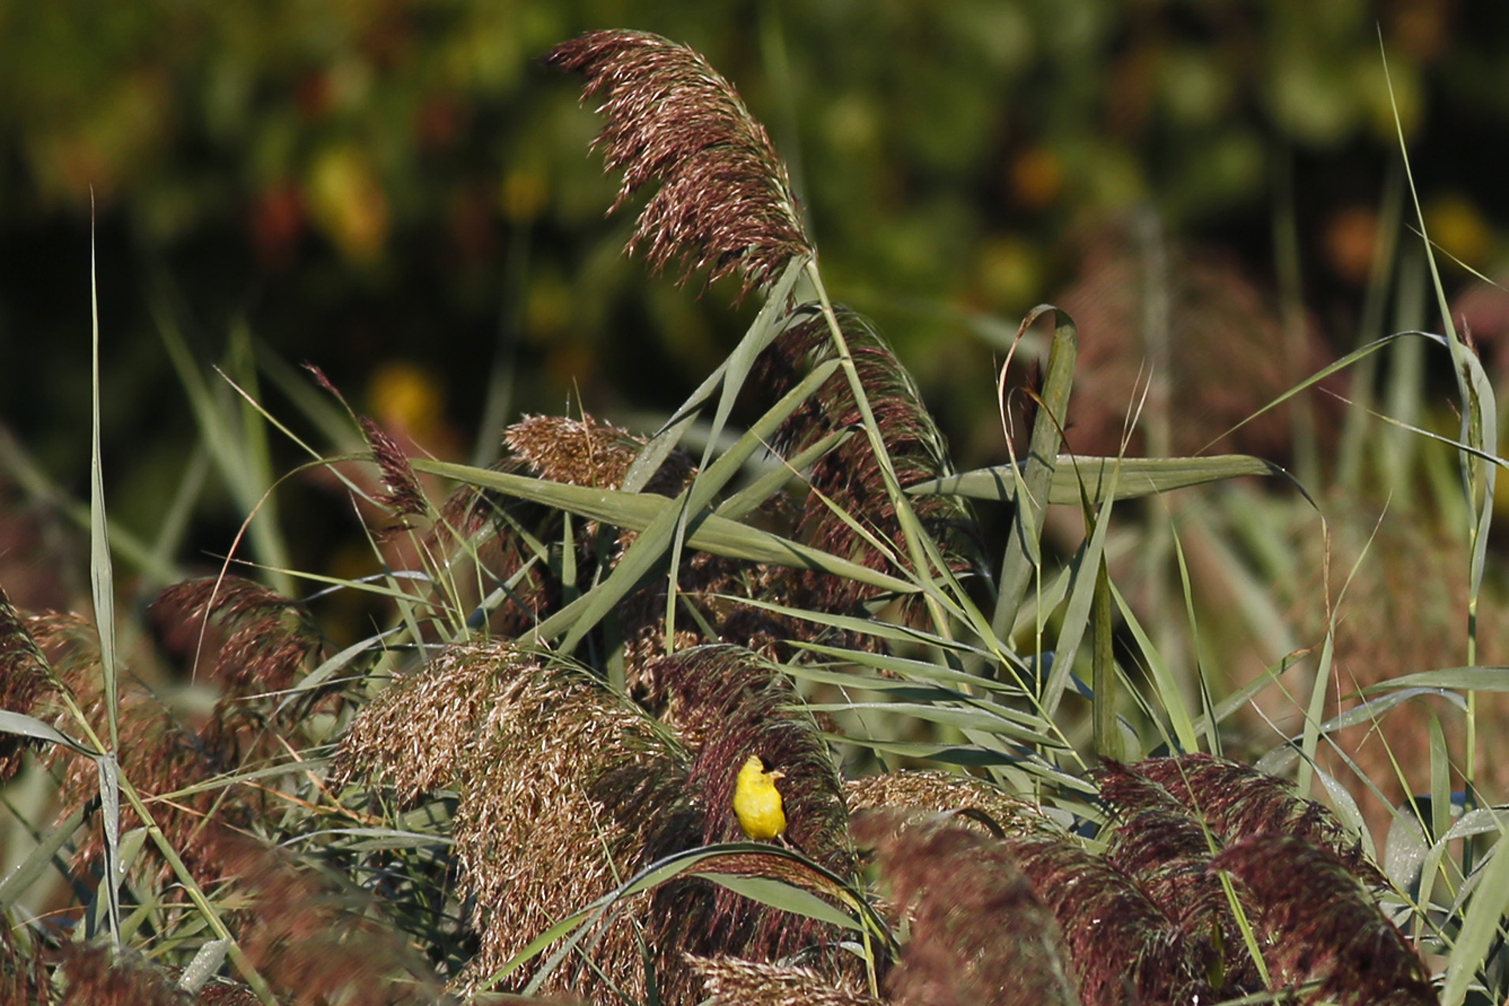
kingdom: Animalia
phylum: Chordata
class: Aves
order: Passeriformes
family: Fringillidae
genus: Spinus
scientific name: Spinus tristis
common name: American goldfinch
